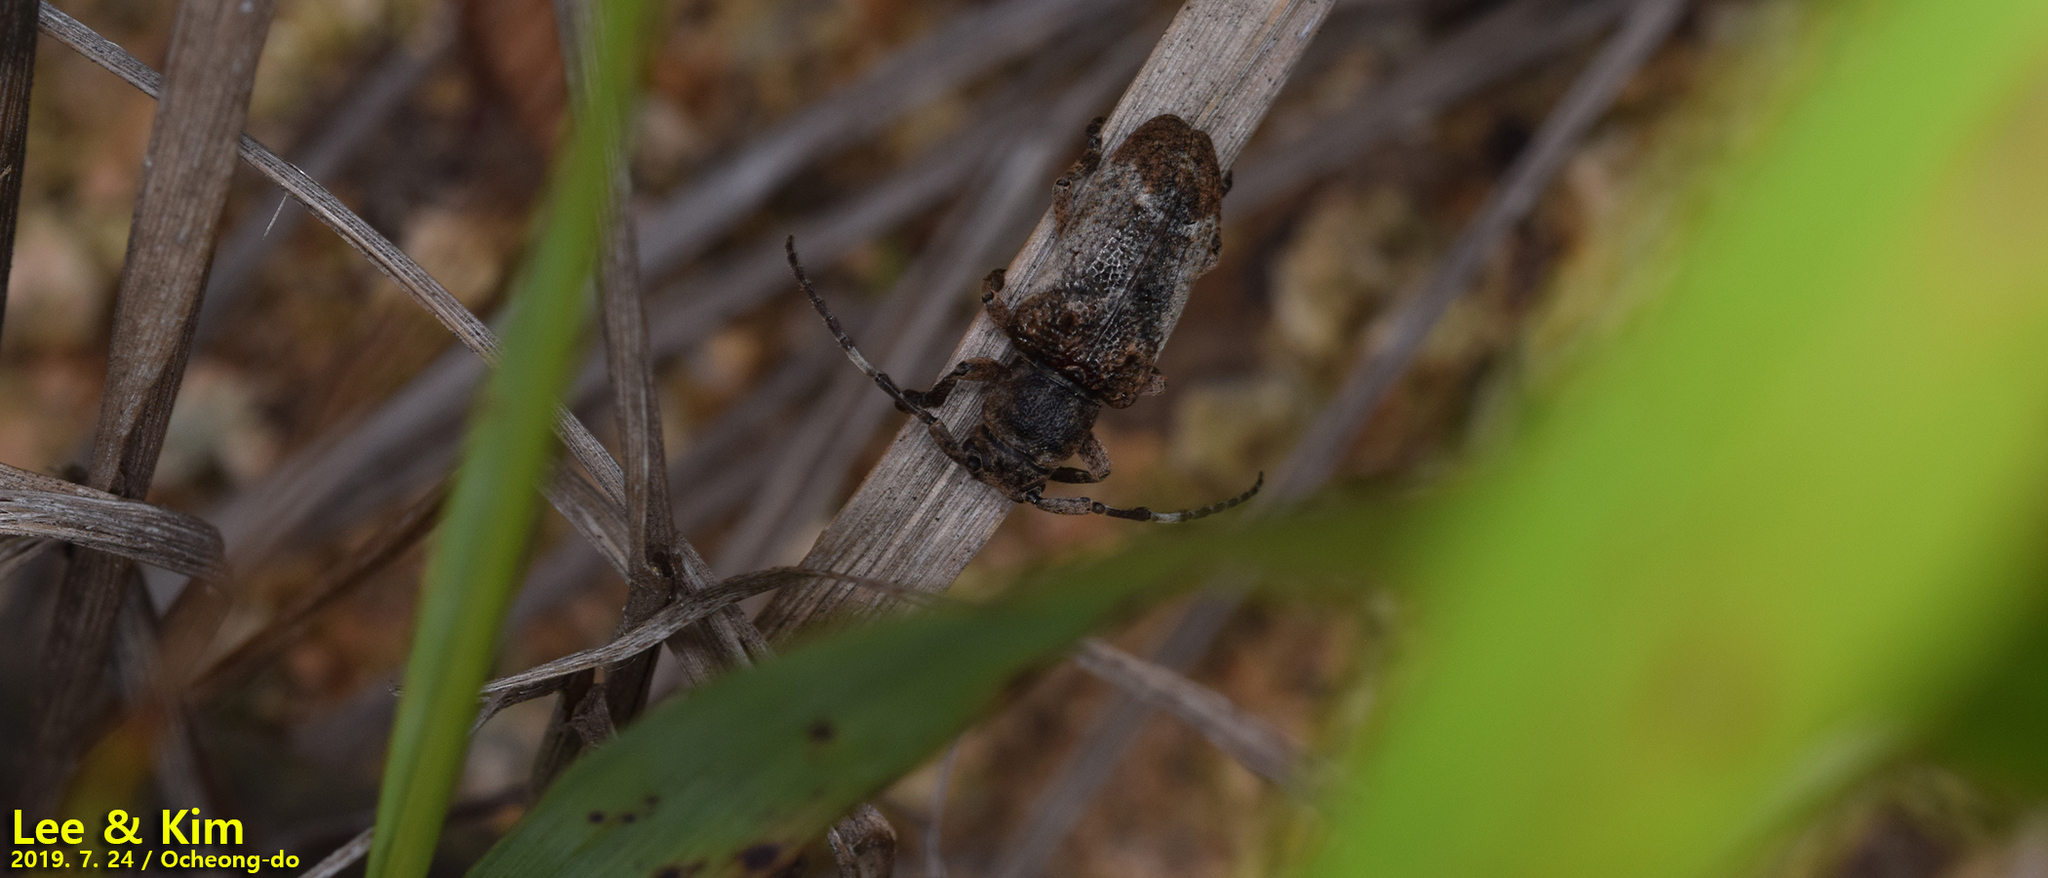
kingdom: Animalia
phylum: Arthropoda
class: Insecta
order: Coleoptera
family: Cerambycidae
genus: Pterolophia
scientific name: Pterolophia annulata
